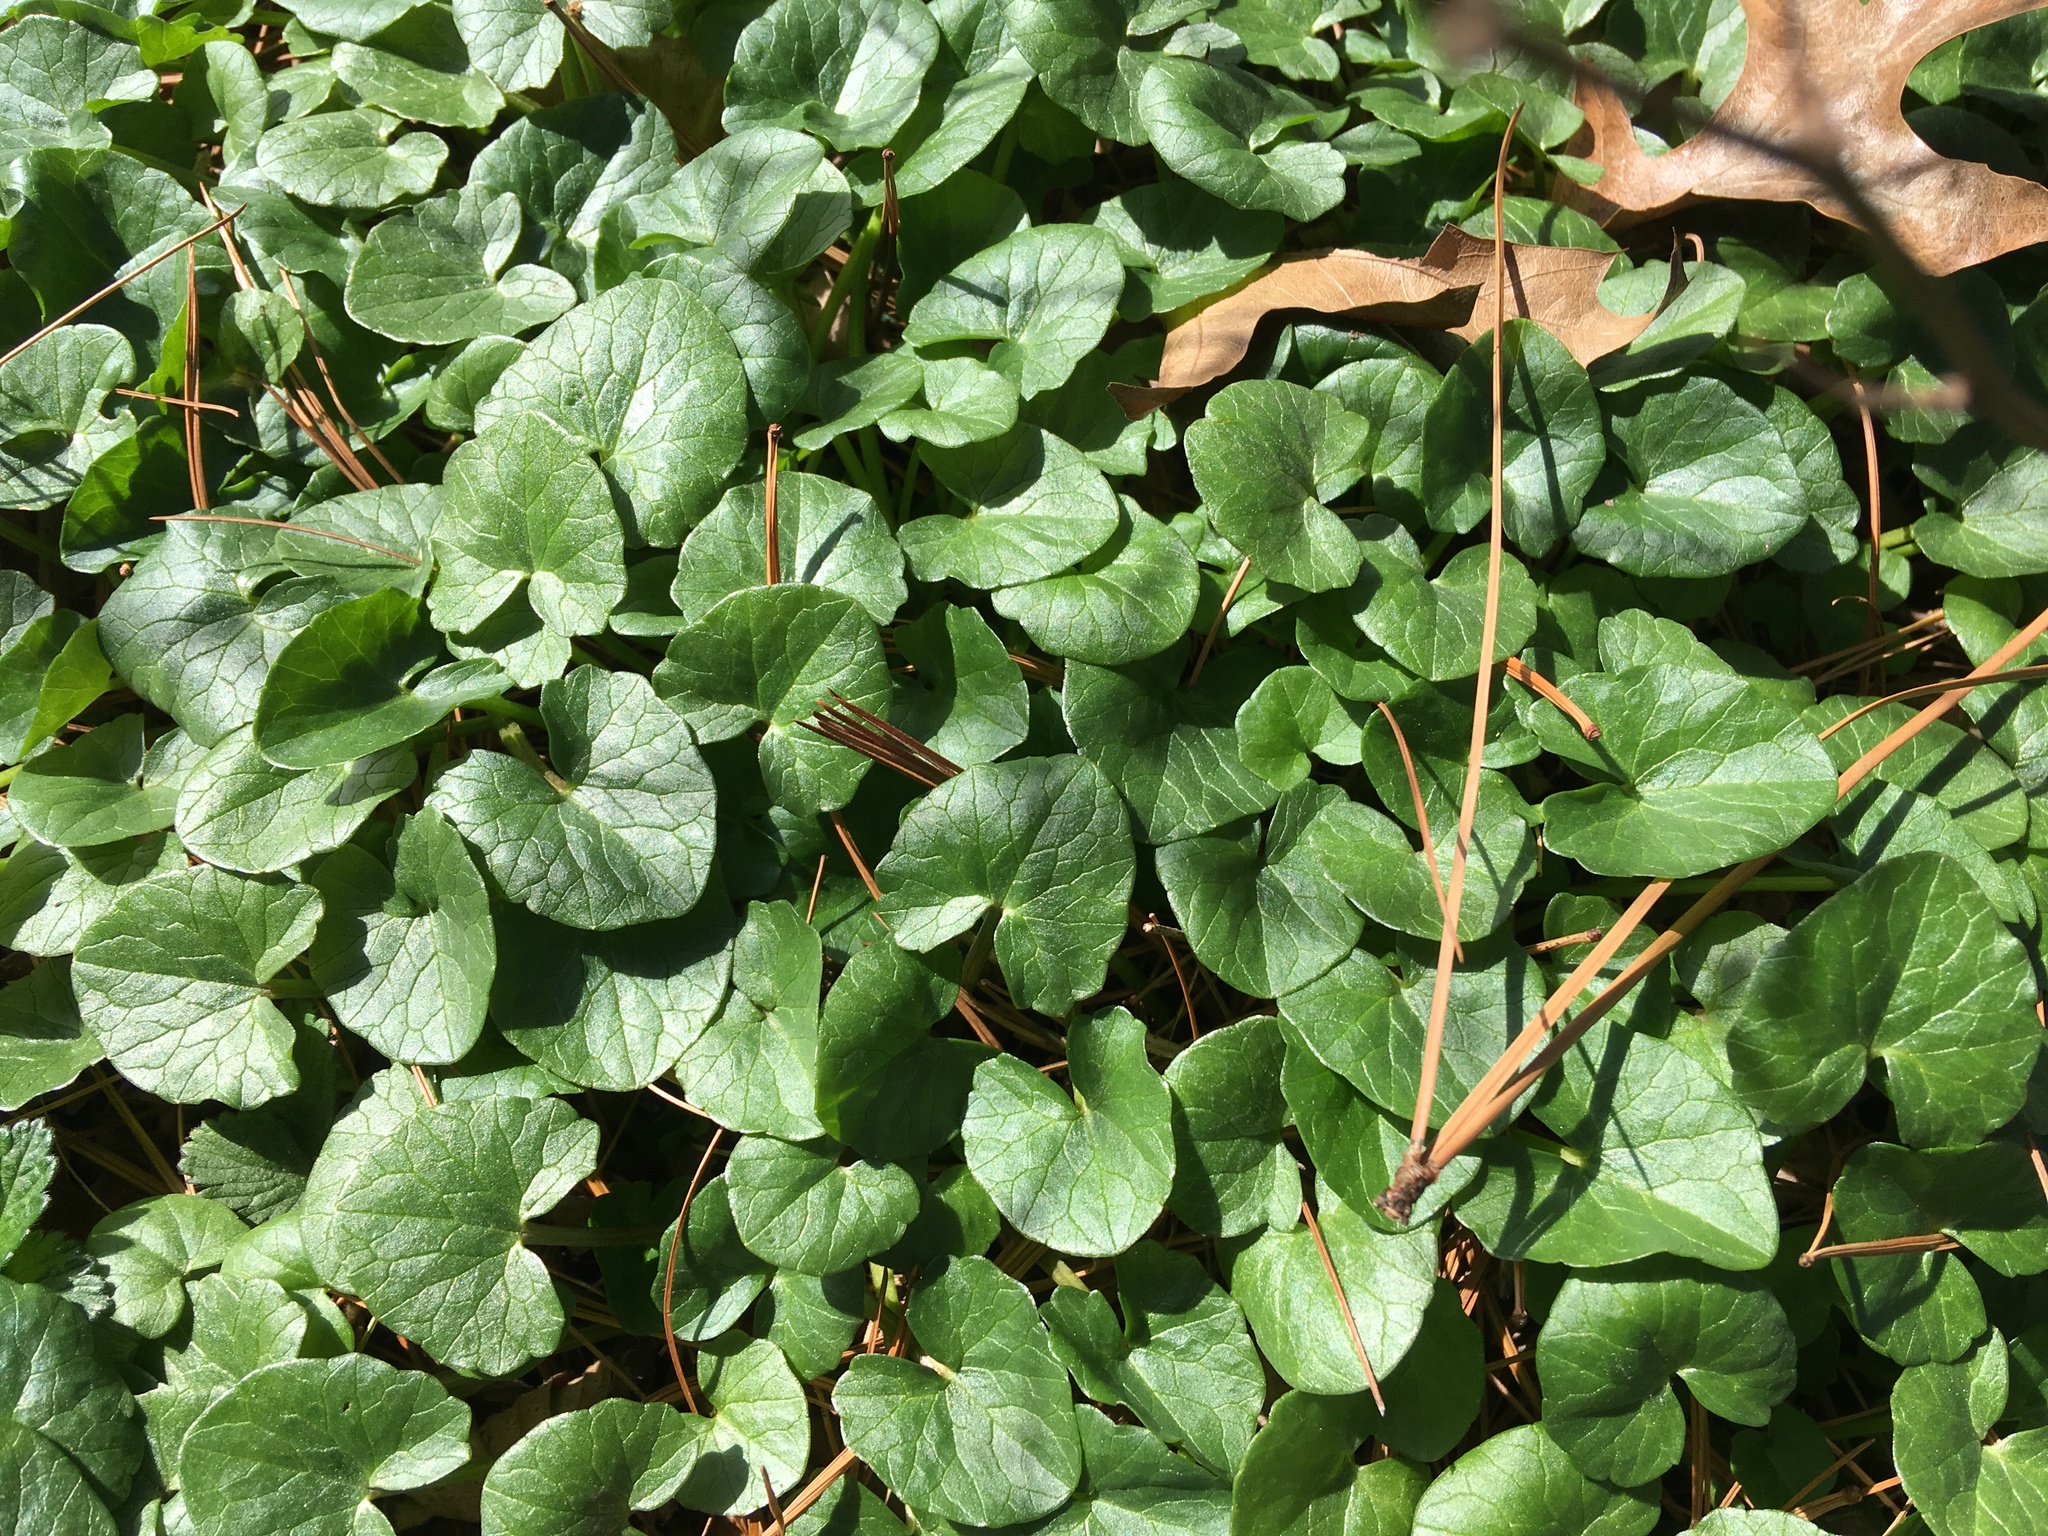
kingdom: Plantae
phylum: Tracheophyta
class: Magnoliopsida
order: Ranunculales
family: Ranunculaceae
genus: Ficaria
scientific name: Ficaria verna
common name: Lesser celandine
